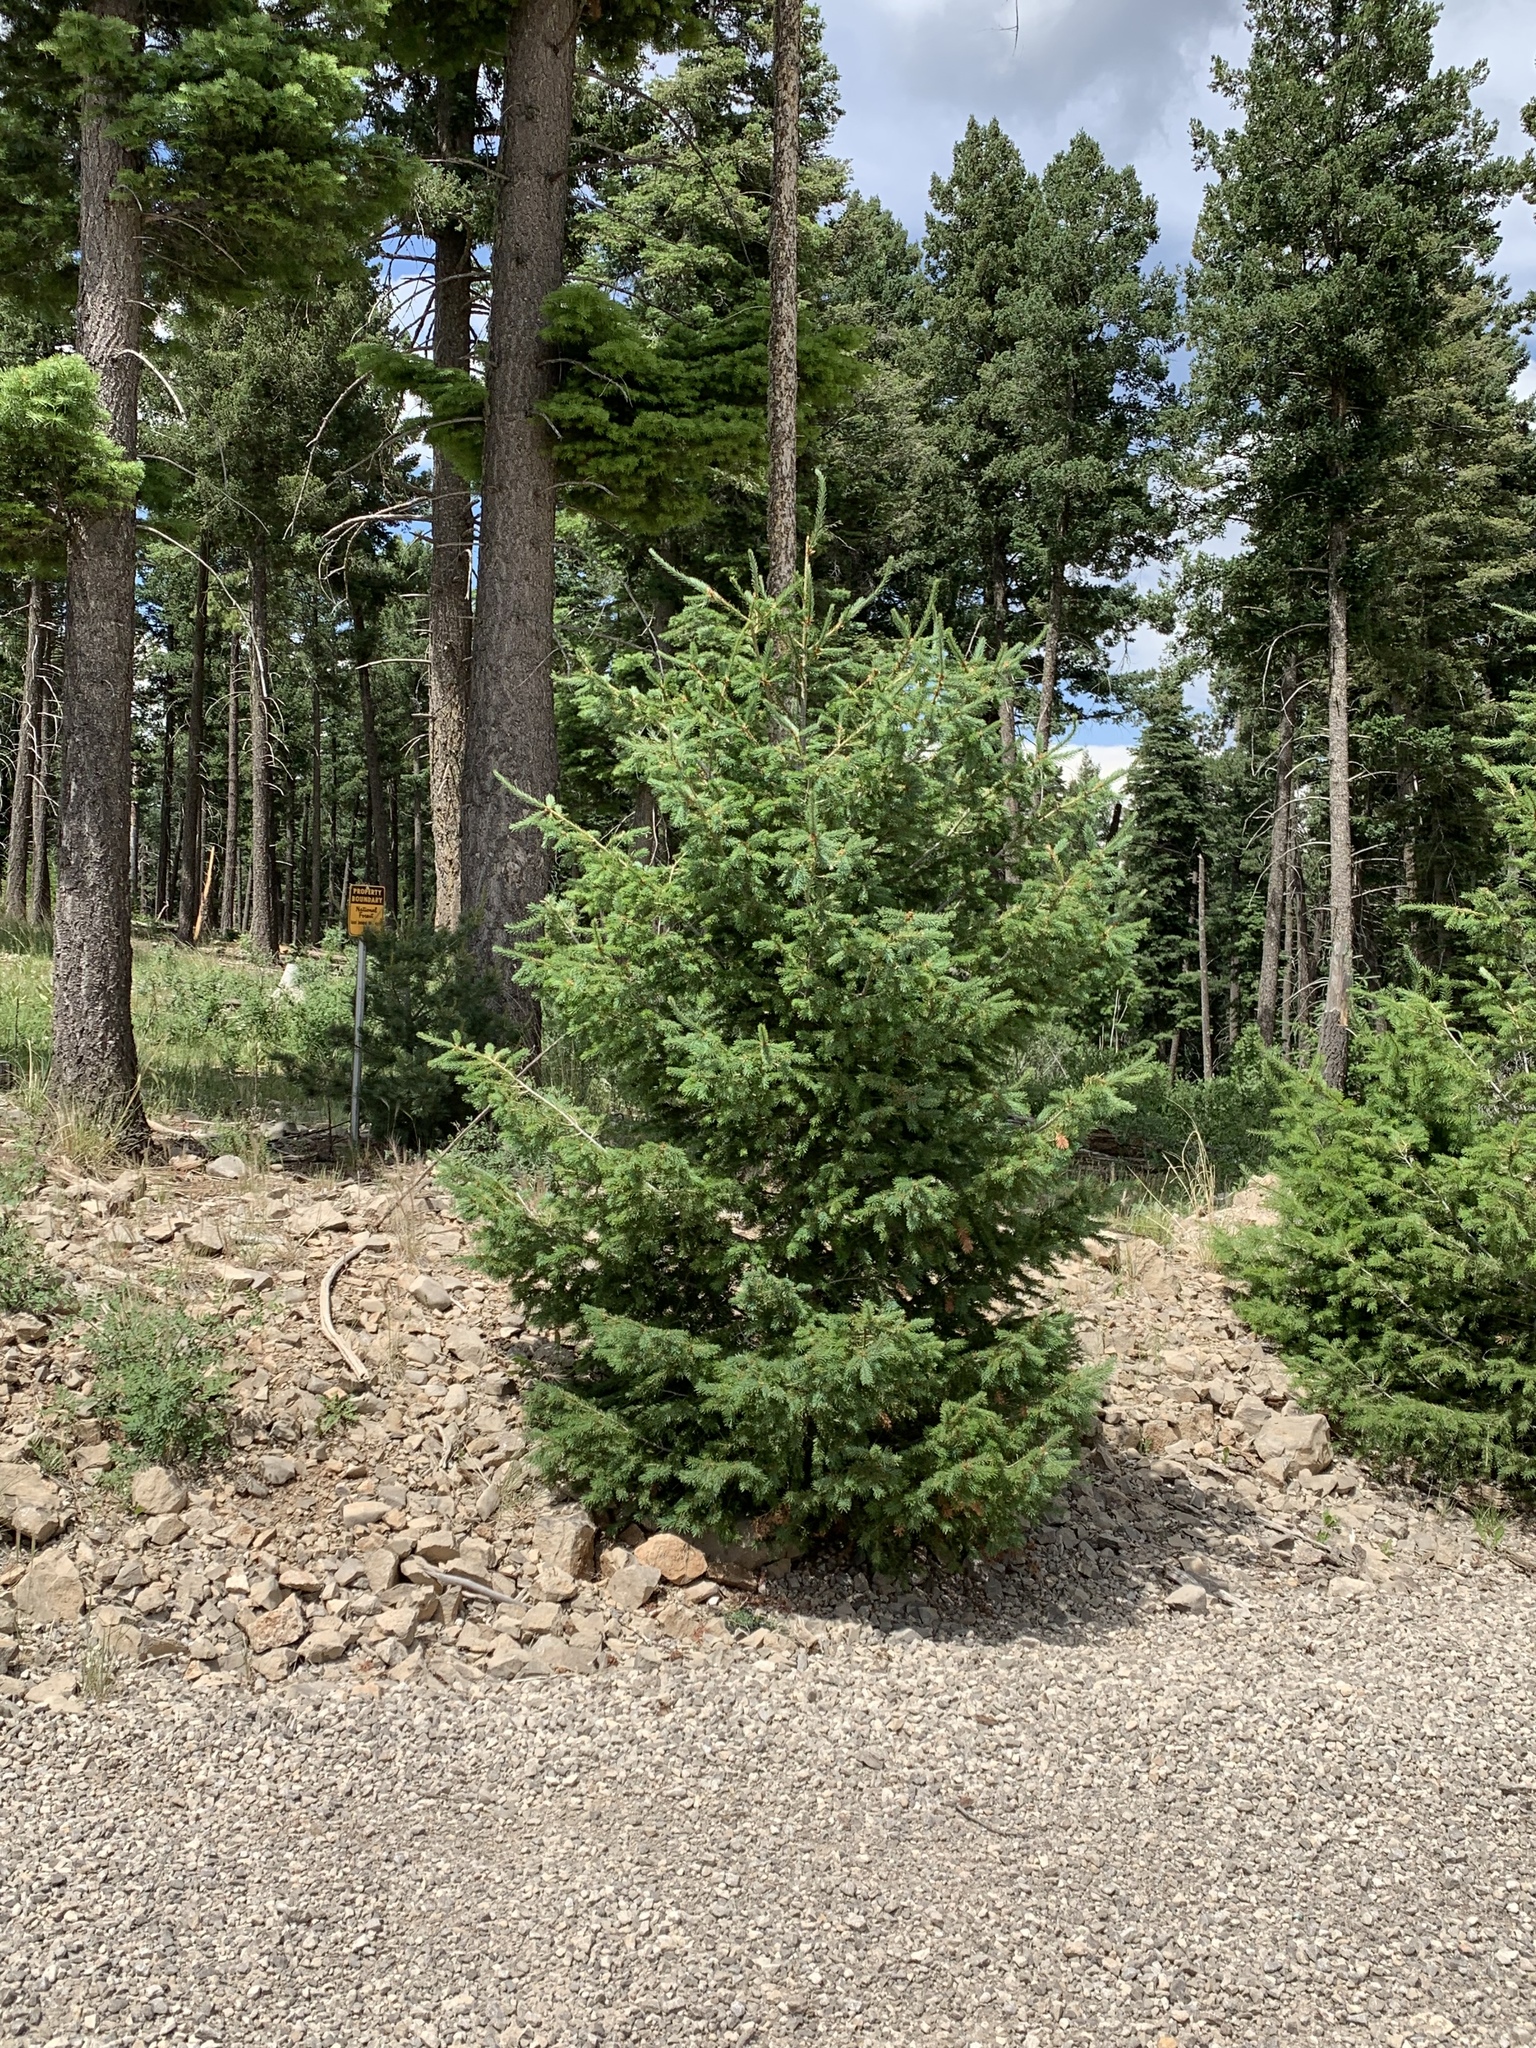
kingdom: Plantae
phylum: Tracheophyta
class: Pinopsida
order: Pinales
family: Pinaceae
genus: Pseudotsuga
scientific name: Pseudotsuga menziesii
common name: Douglas fir
